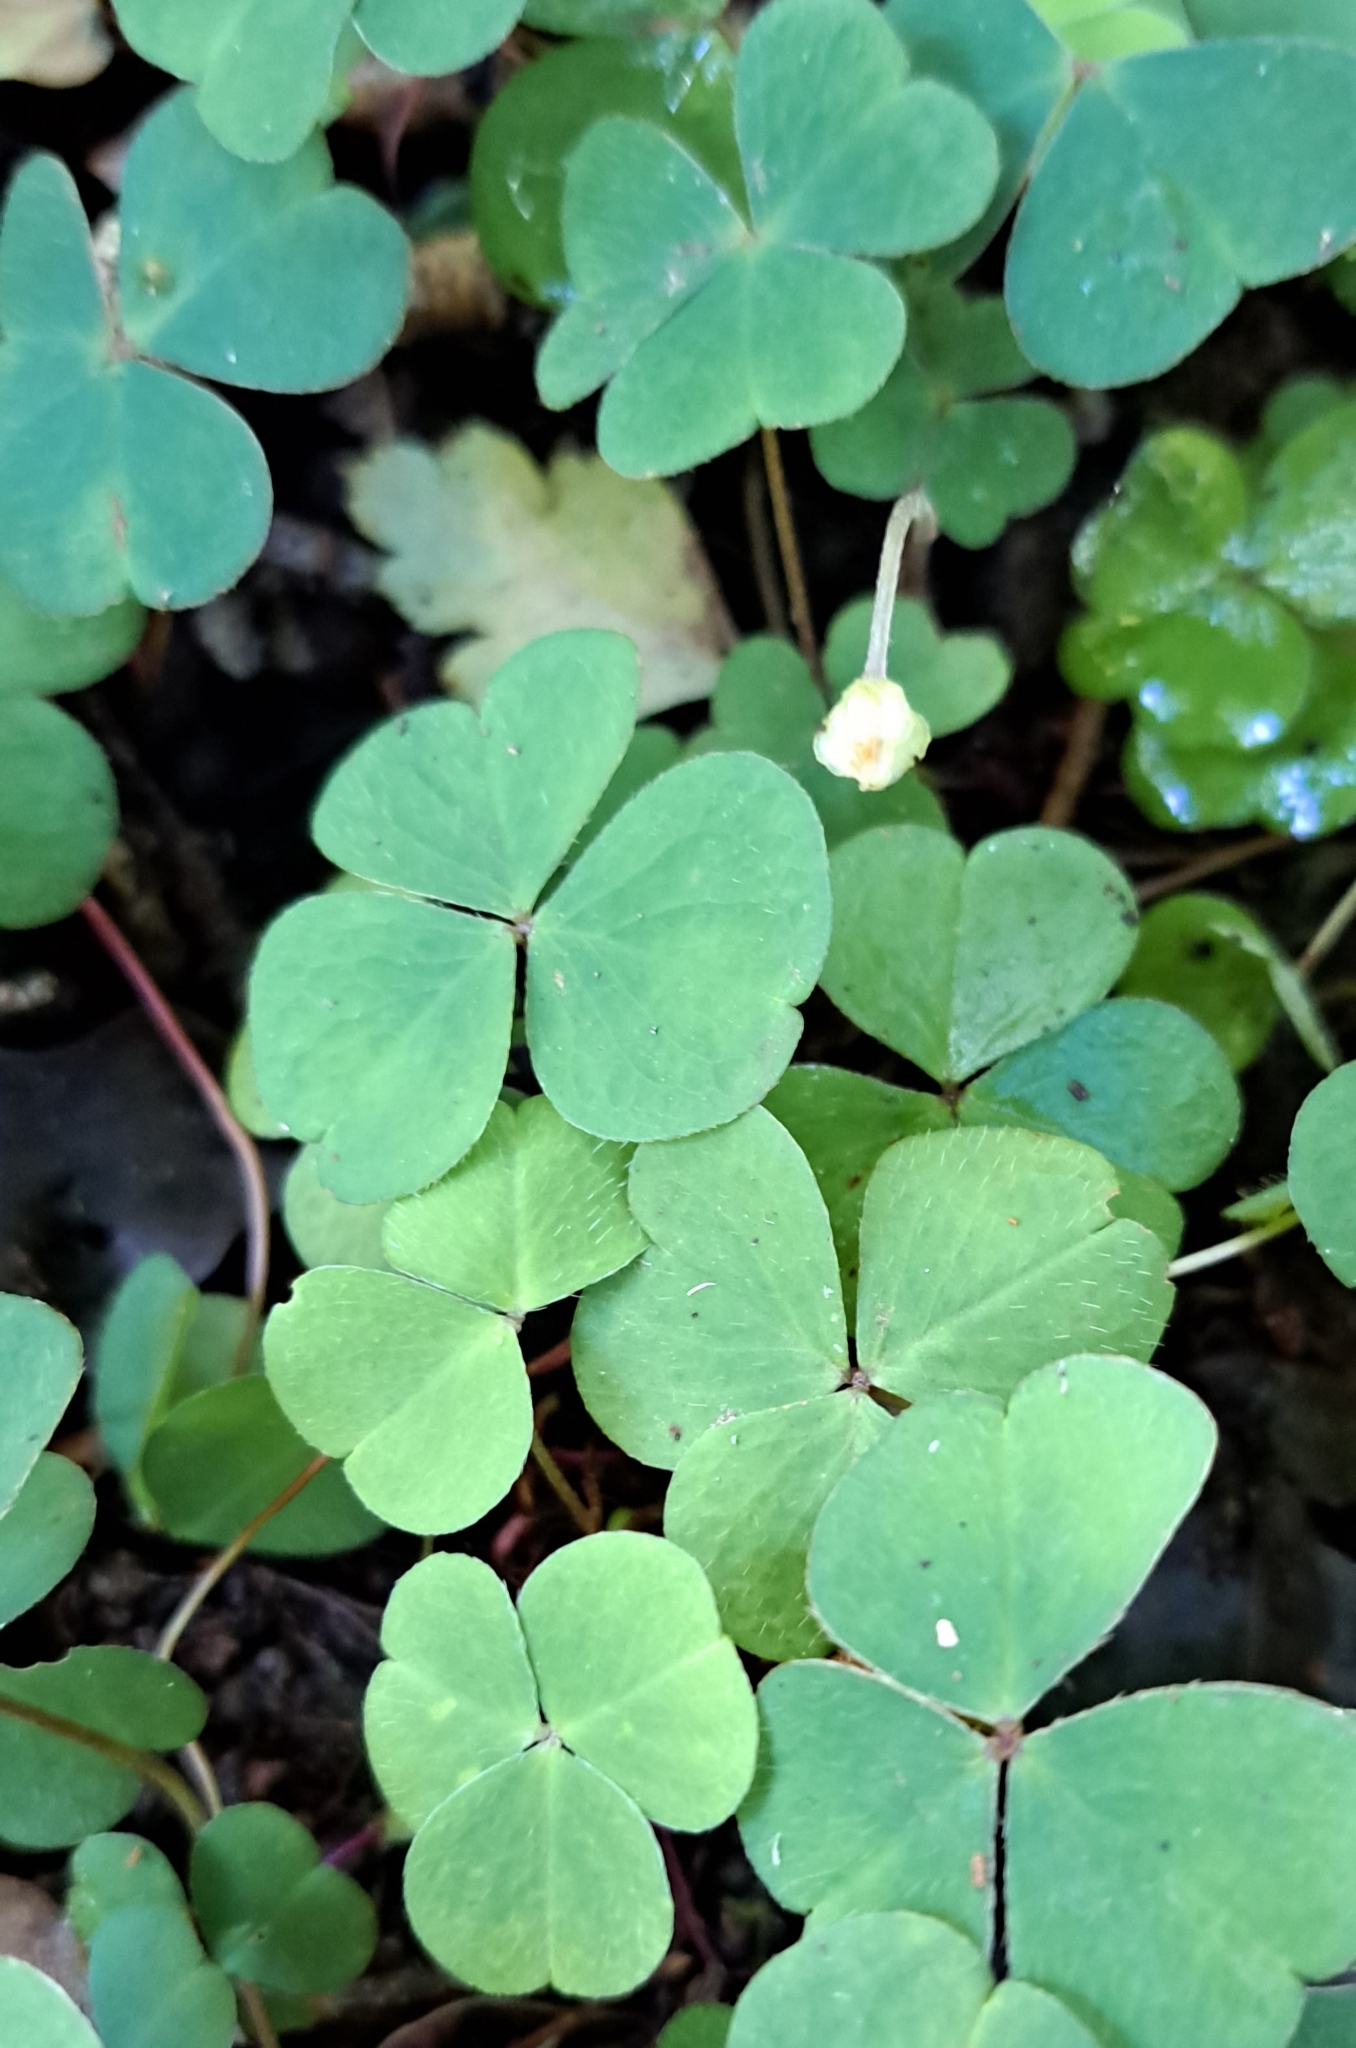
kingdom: Plantae
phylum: Tracheophyta
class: Magnoliopsida
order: Oxalidales
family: Oxalidaceae
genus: Oxalis
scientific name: Oxalis acetosella
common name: Wood-sorrel
